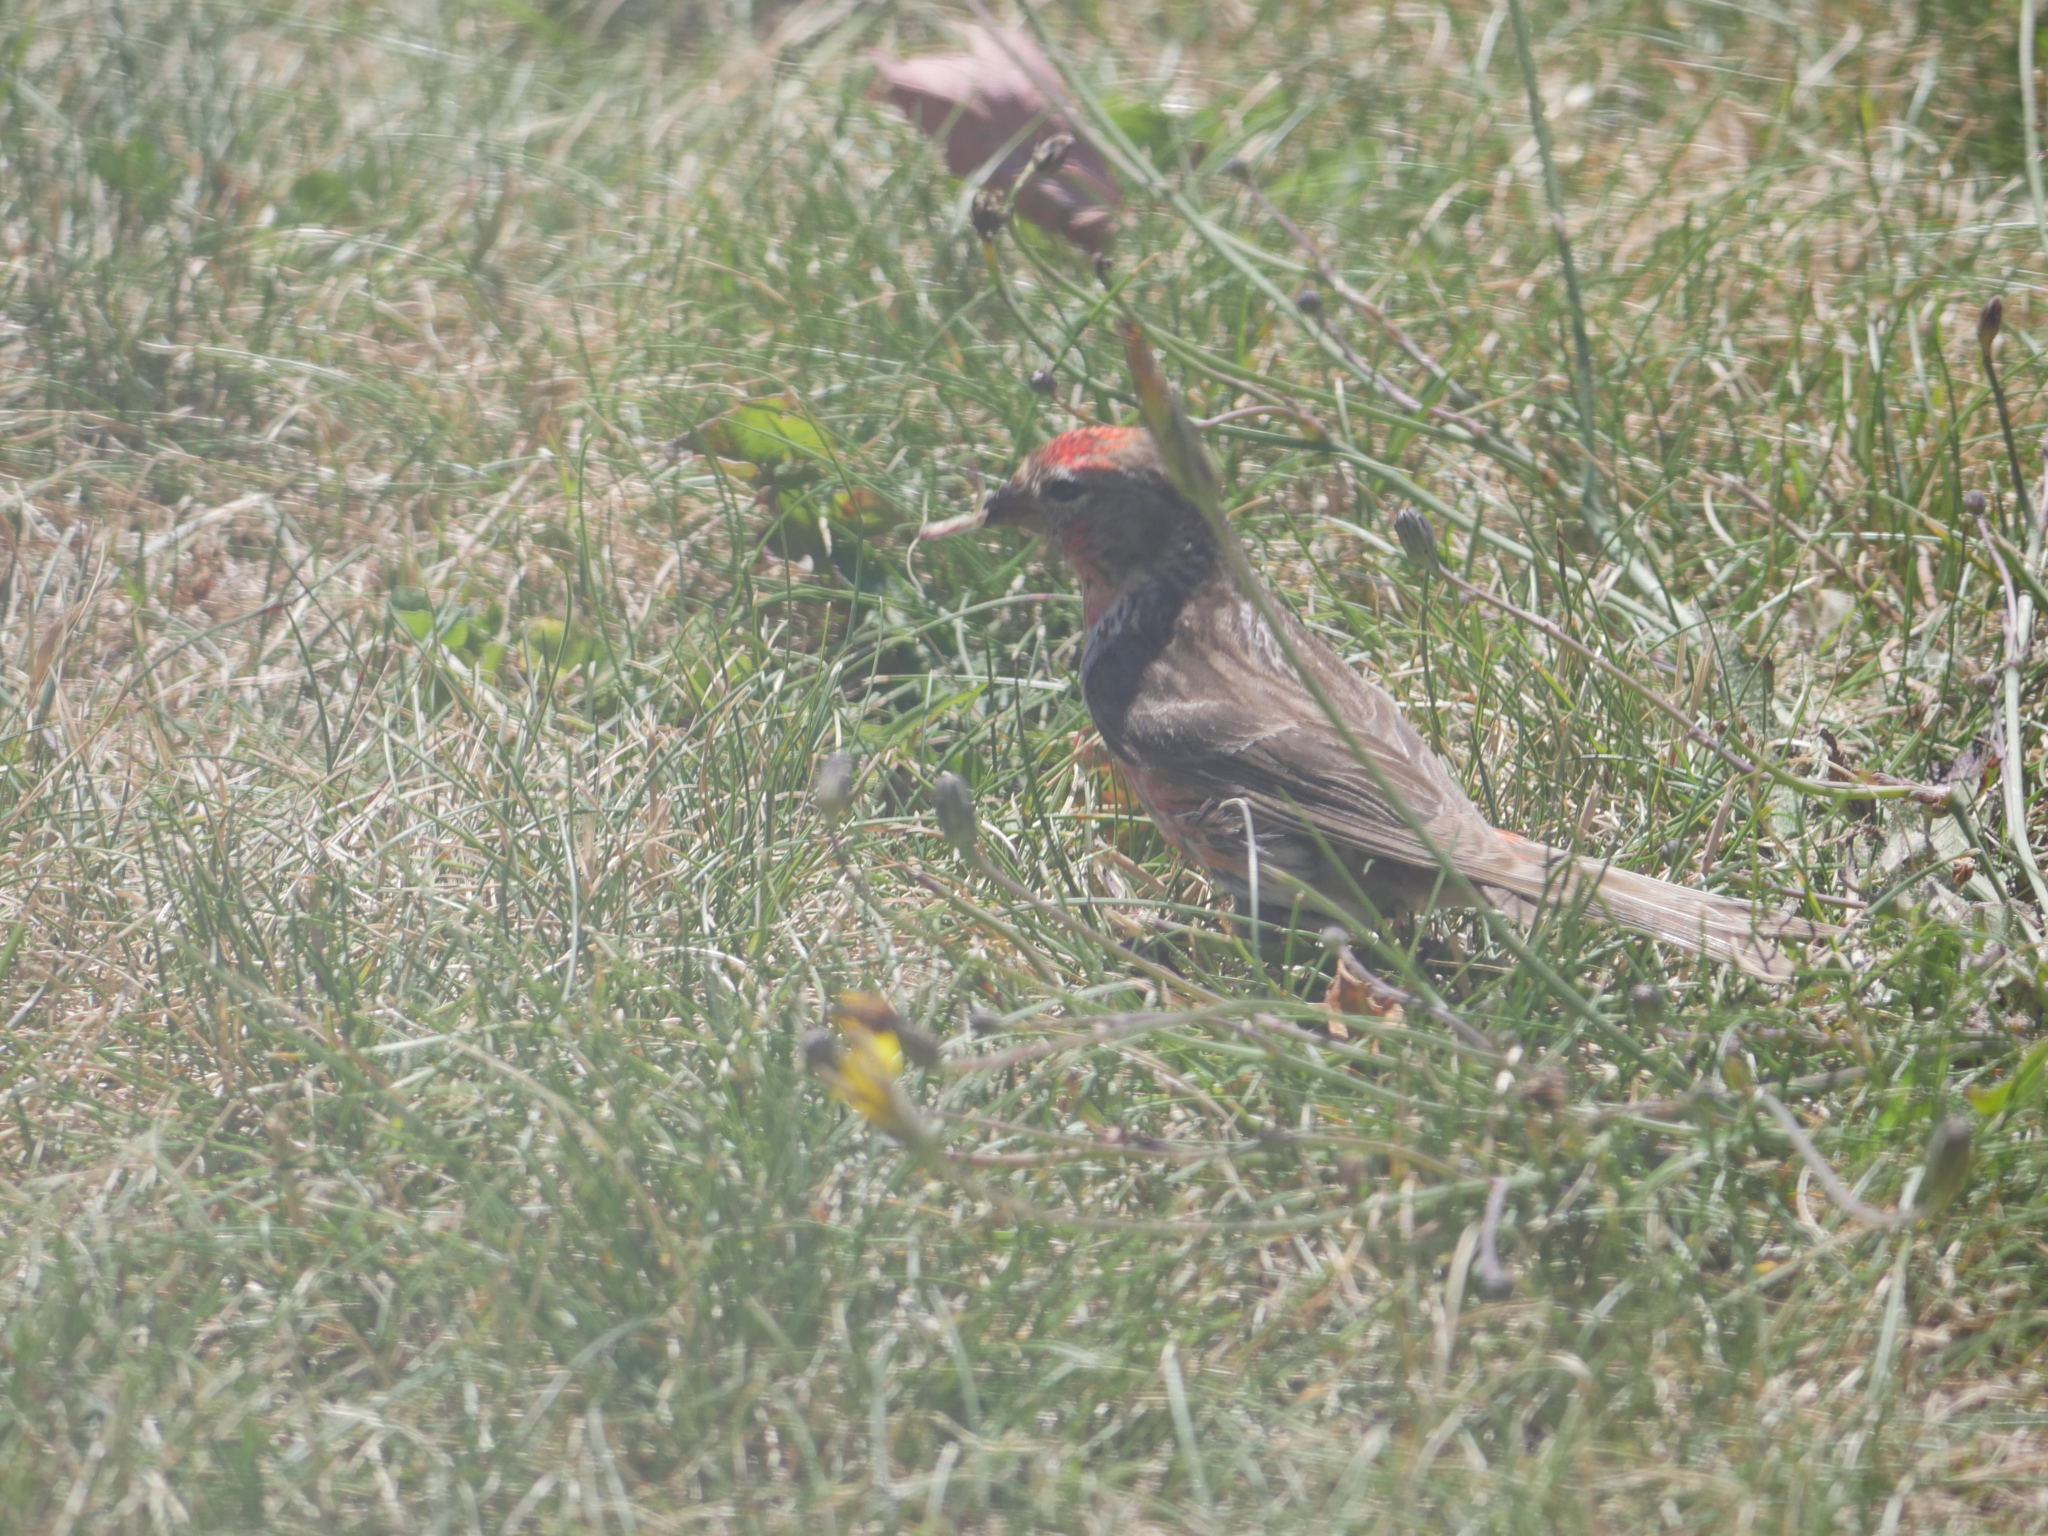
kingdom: Animalia
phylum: Chordata
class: Aves
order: Passeriformes
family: Fringillidae
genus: Acanthis
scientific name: Acanthis flammea
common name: Common redpoll
